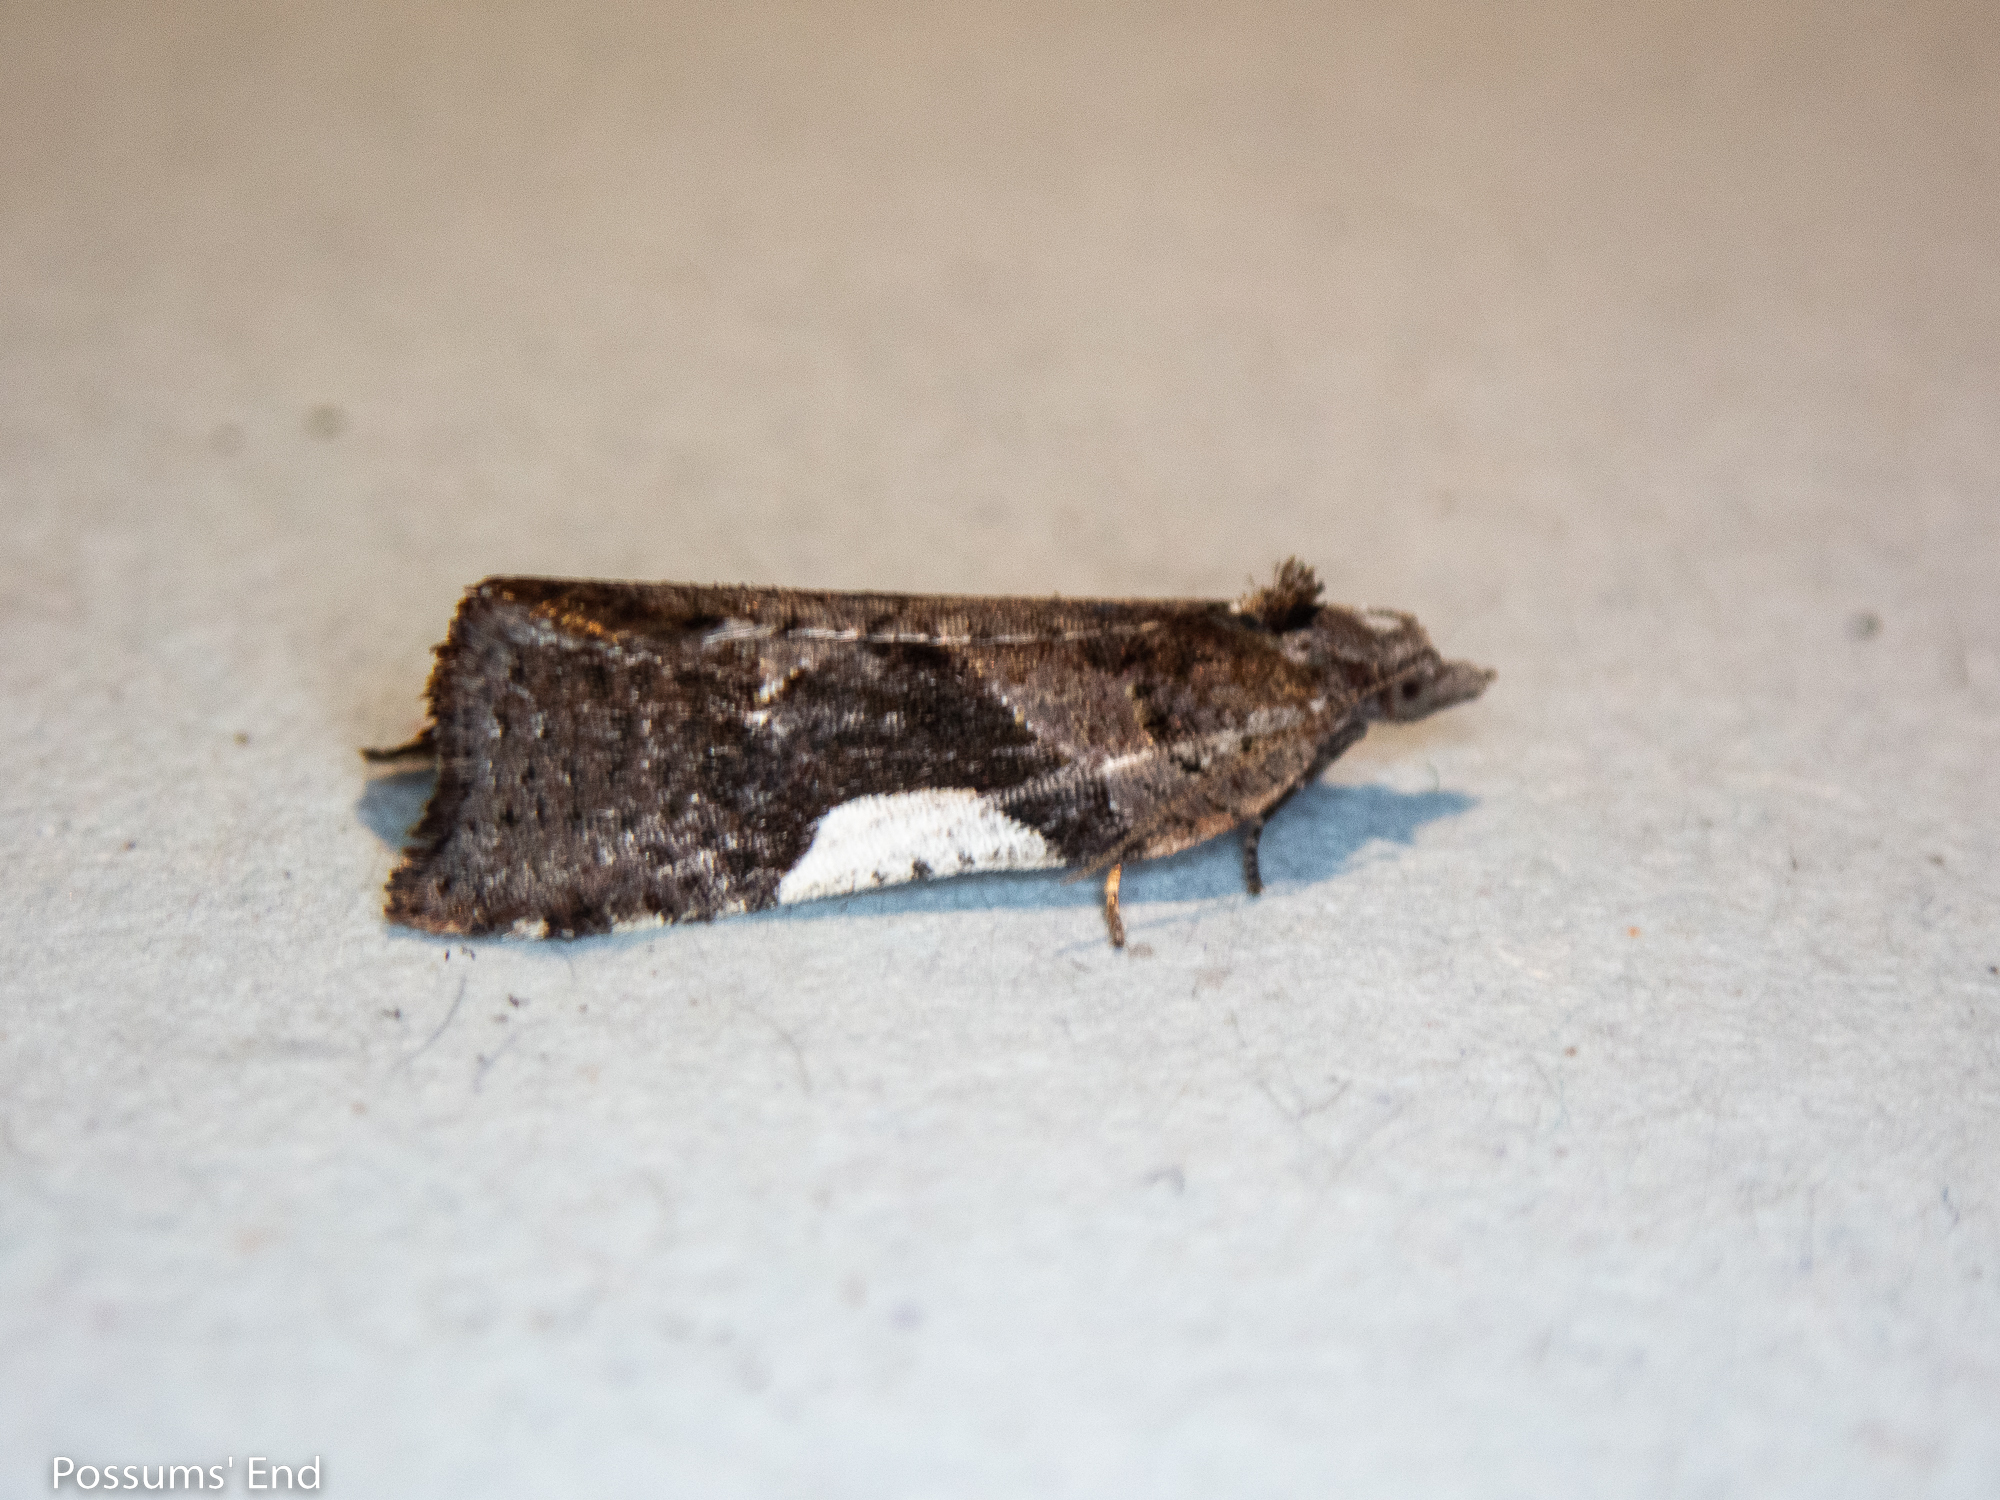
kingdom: Animalia
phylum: Arthropoda
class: Insecta
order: Lepidoptera
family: Tortricidae
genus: Pyrgotis
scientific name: Pyrgotis plagiatana
